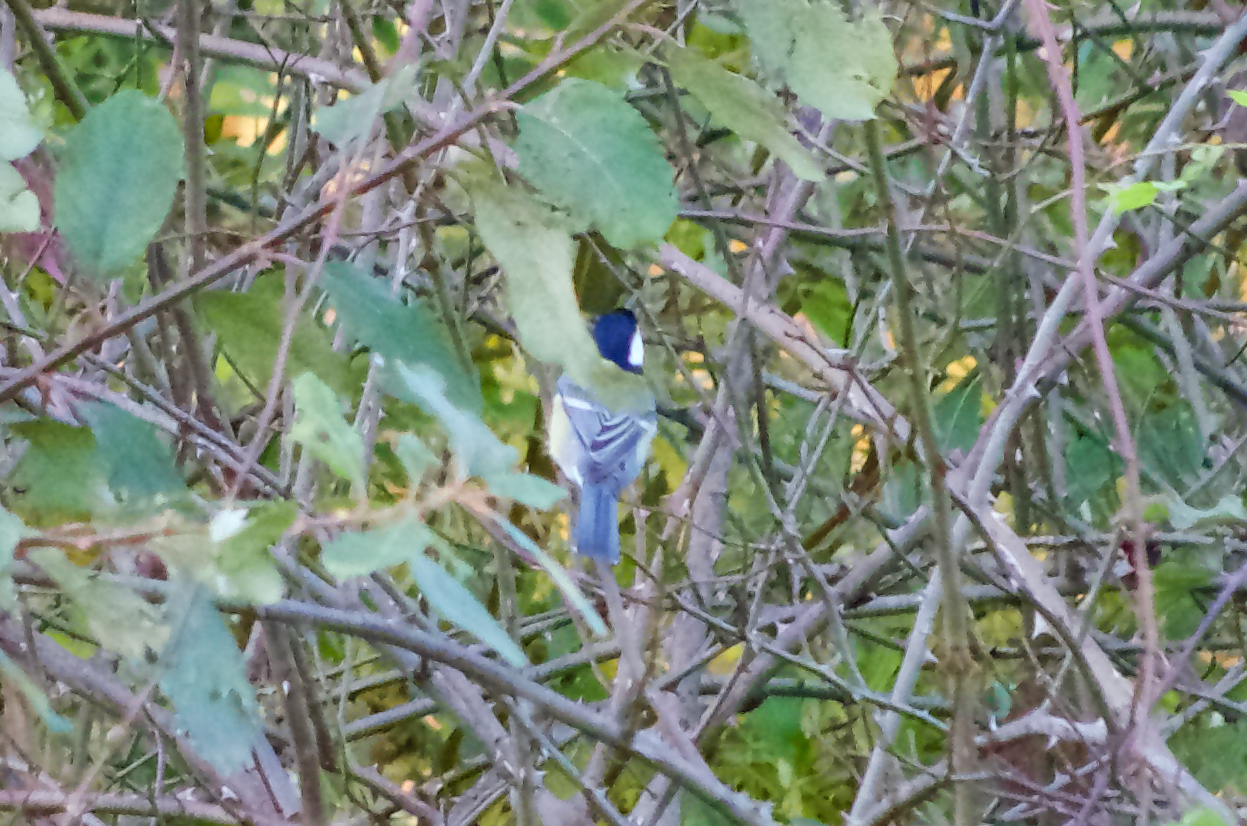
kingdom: Animalia
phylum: Chordata
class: Aves
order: Passeriformes
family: Paridae
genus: Parus
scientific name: Parus major
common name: Great tit
